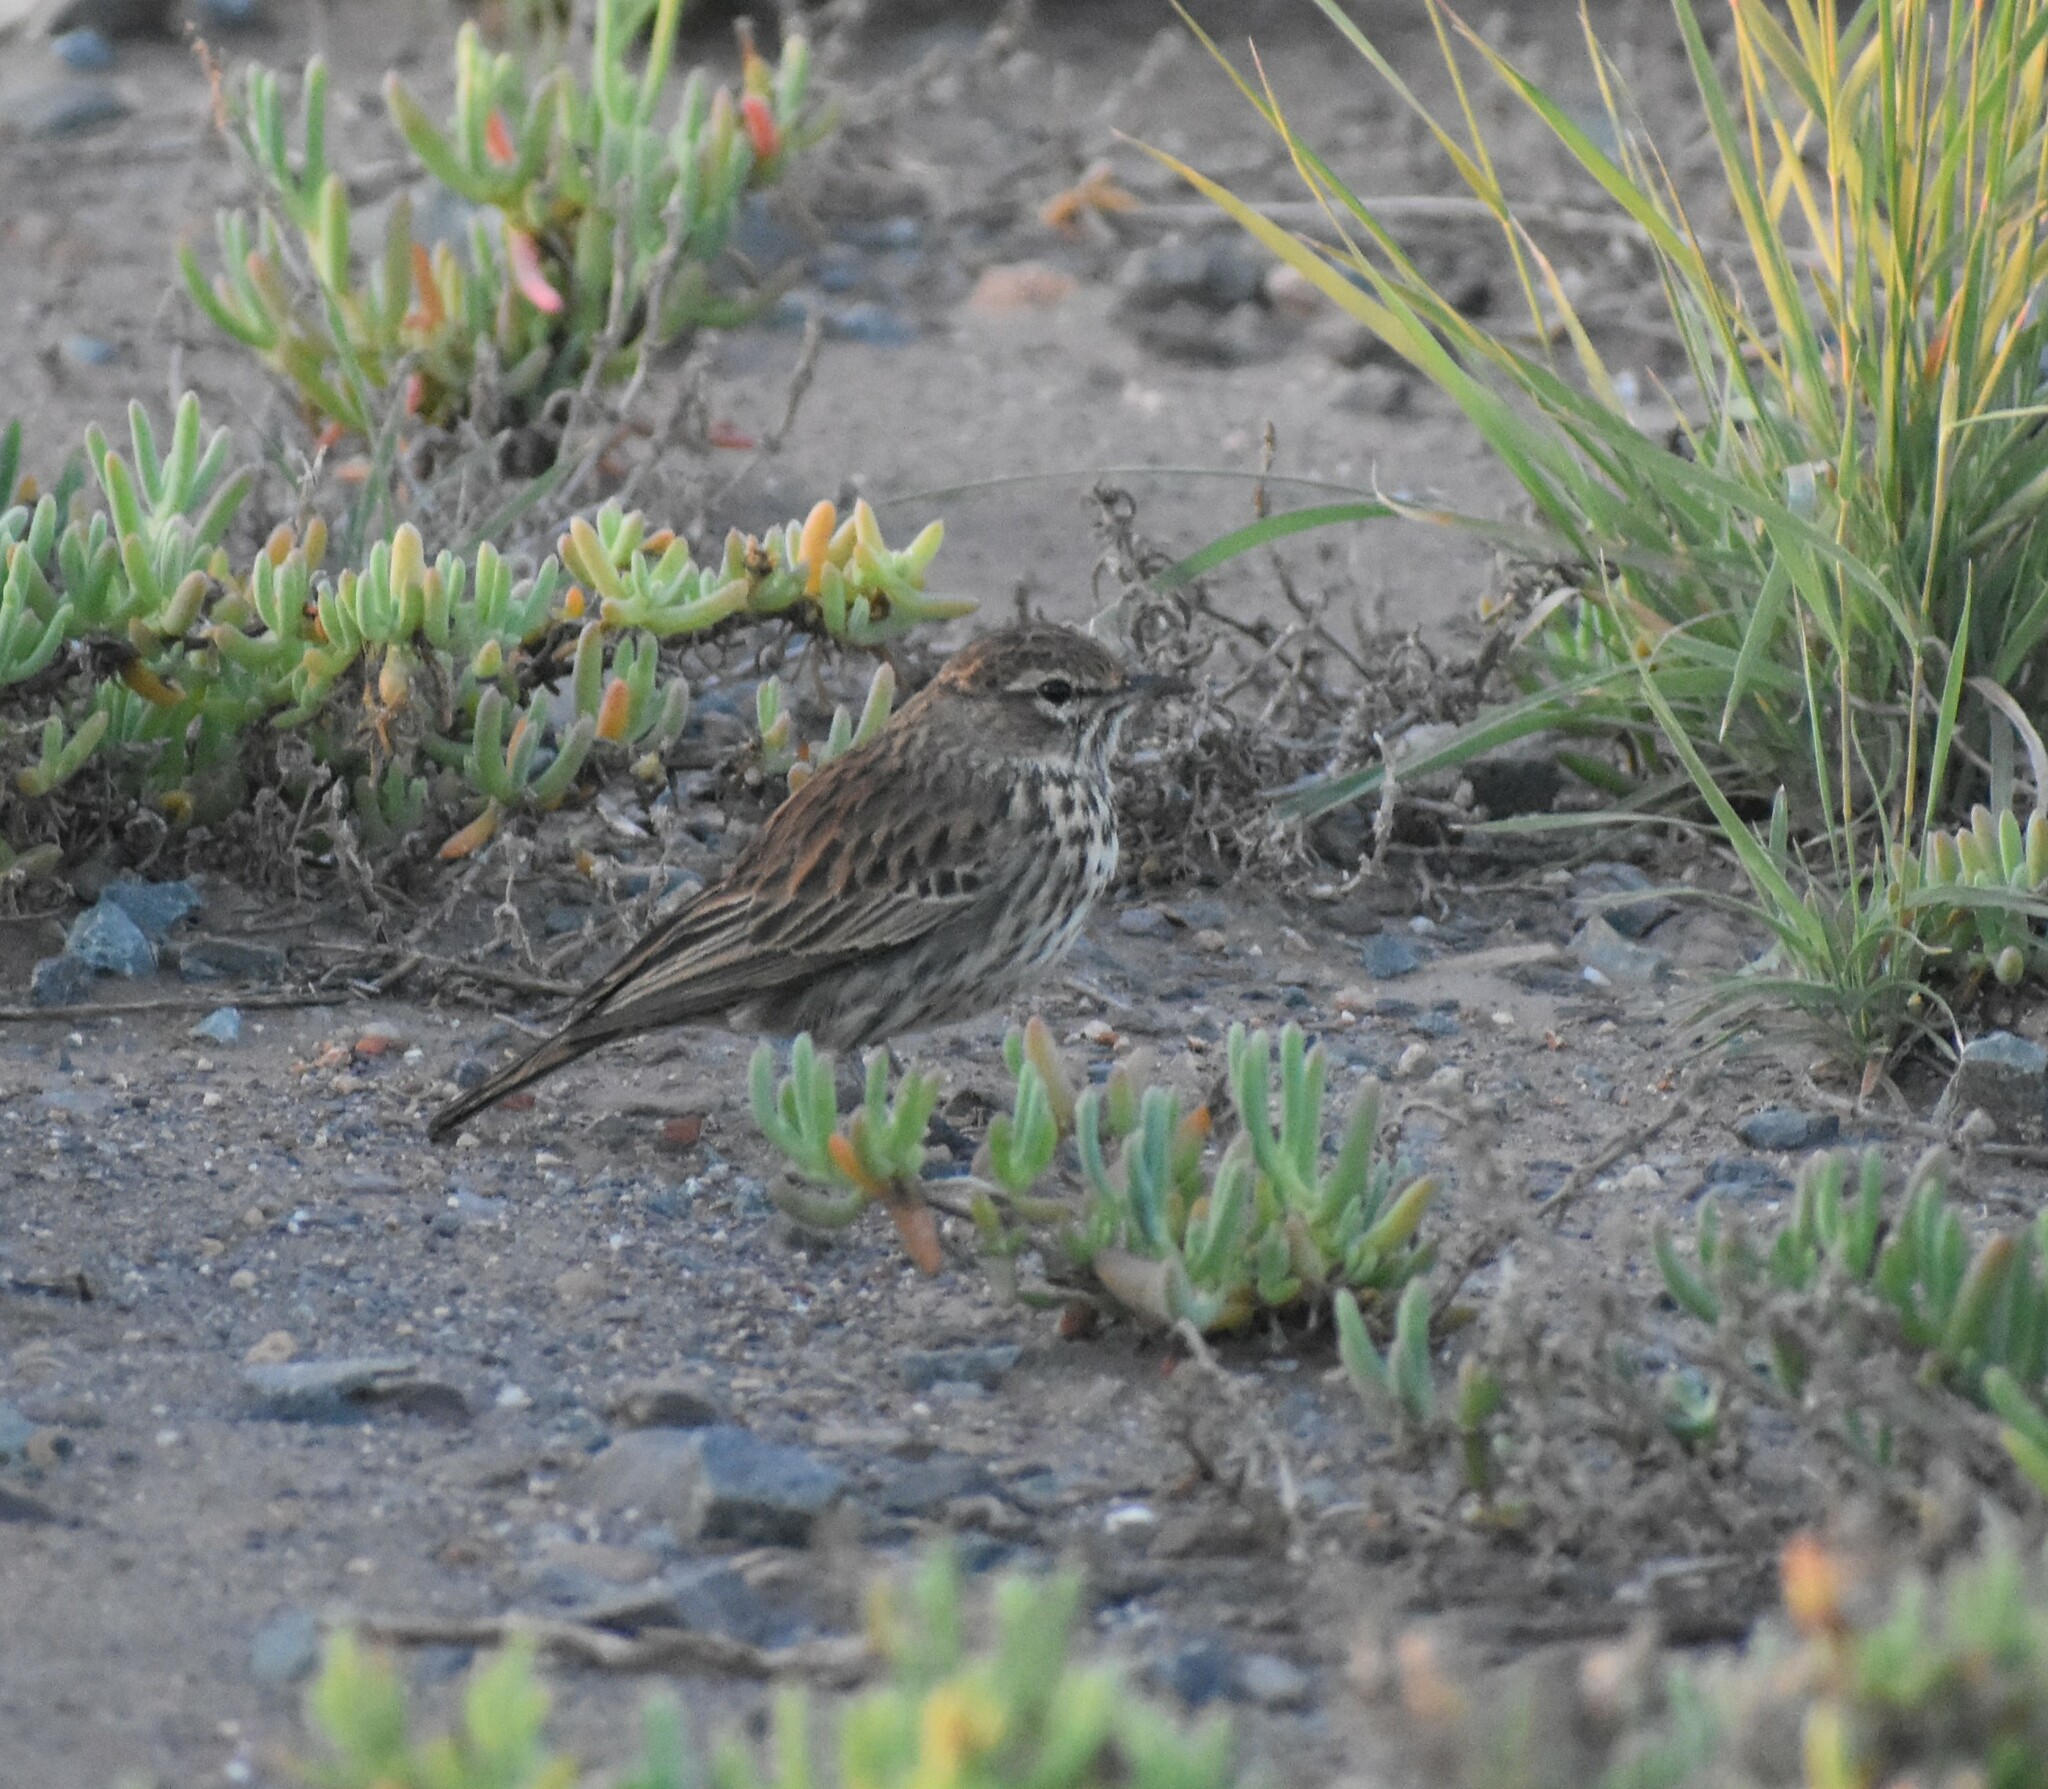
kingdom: Animalia
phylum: Chordata
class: Aves
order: Passeriformes
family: Alaudidae
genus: Calendulauda
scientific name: Calendulauda albescens
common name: Karoo lark
